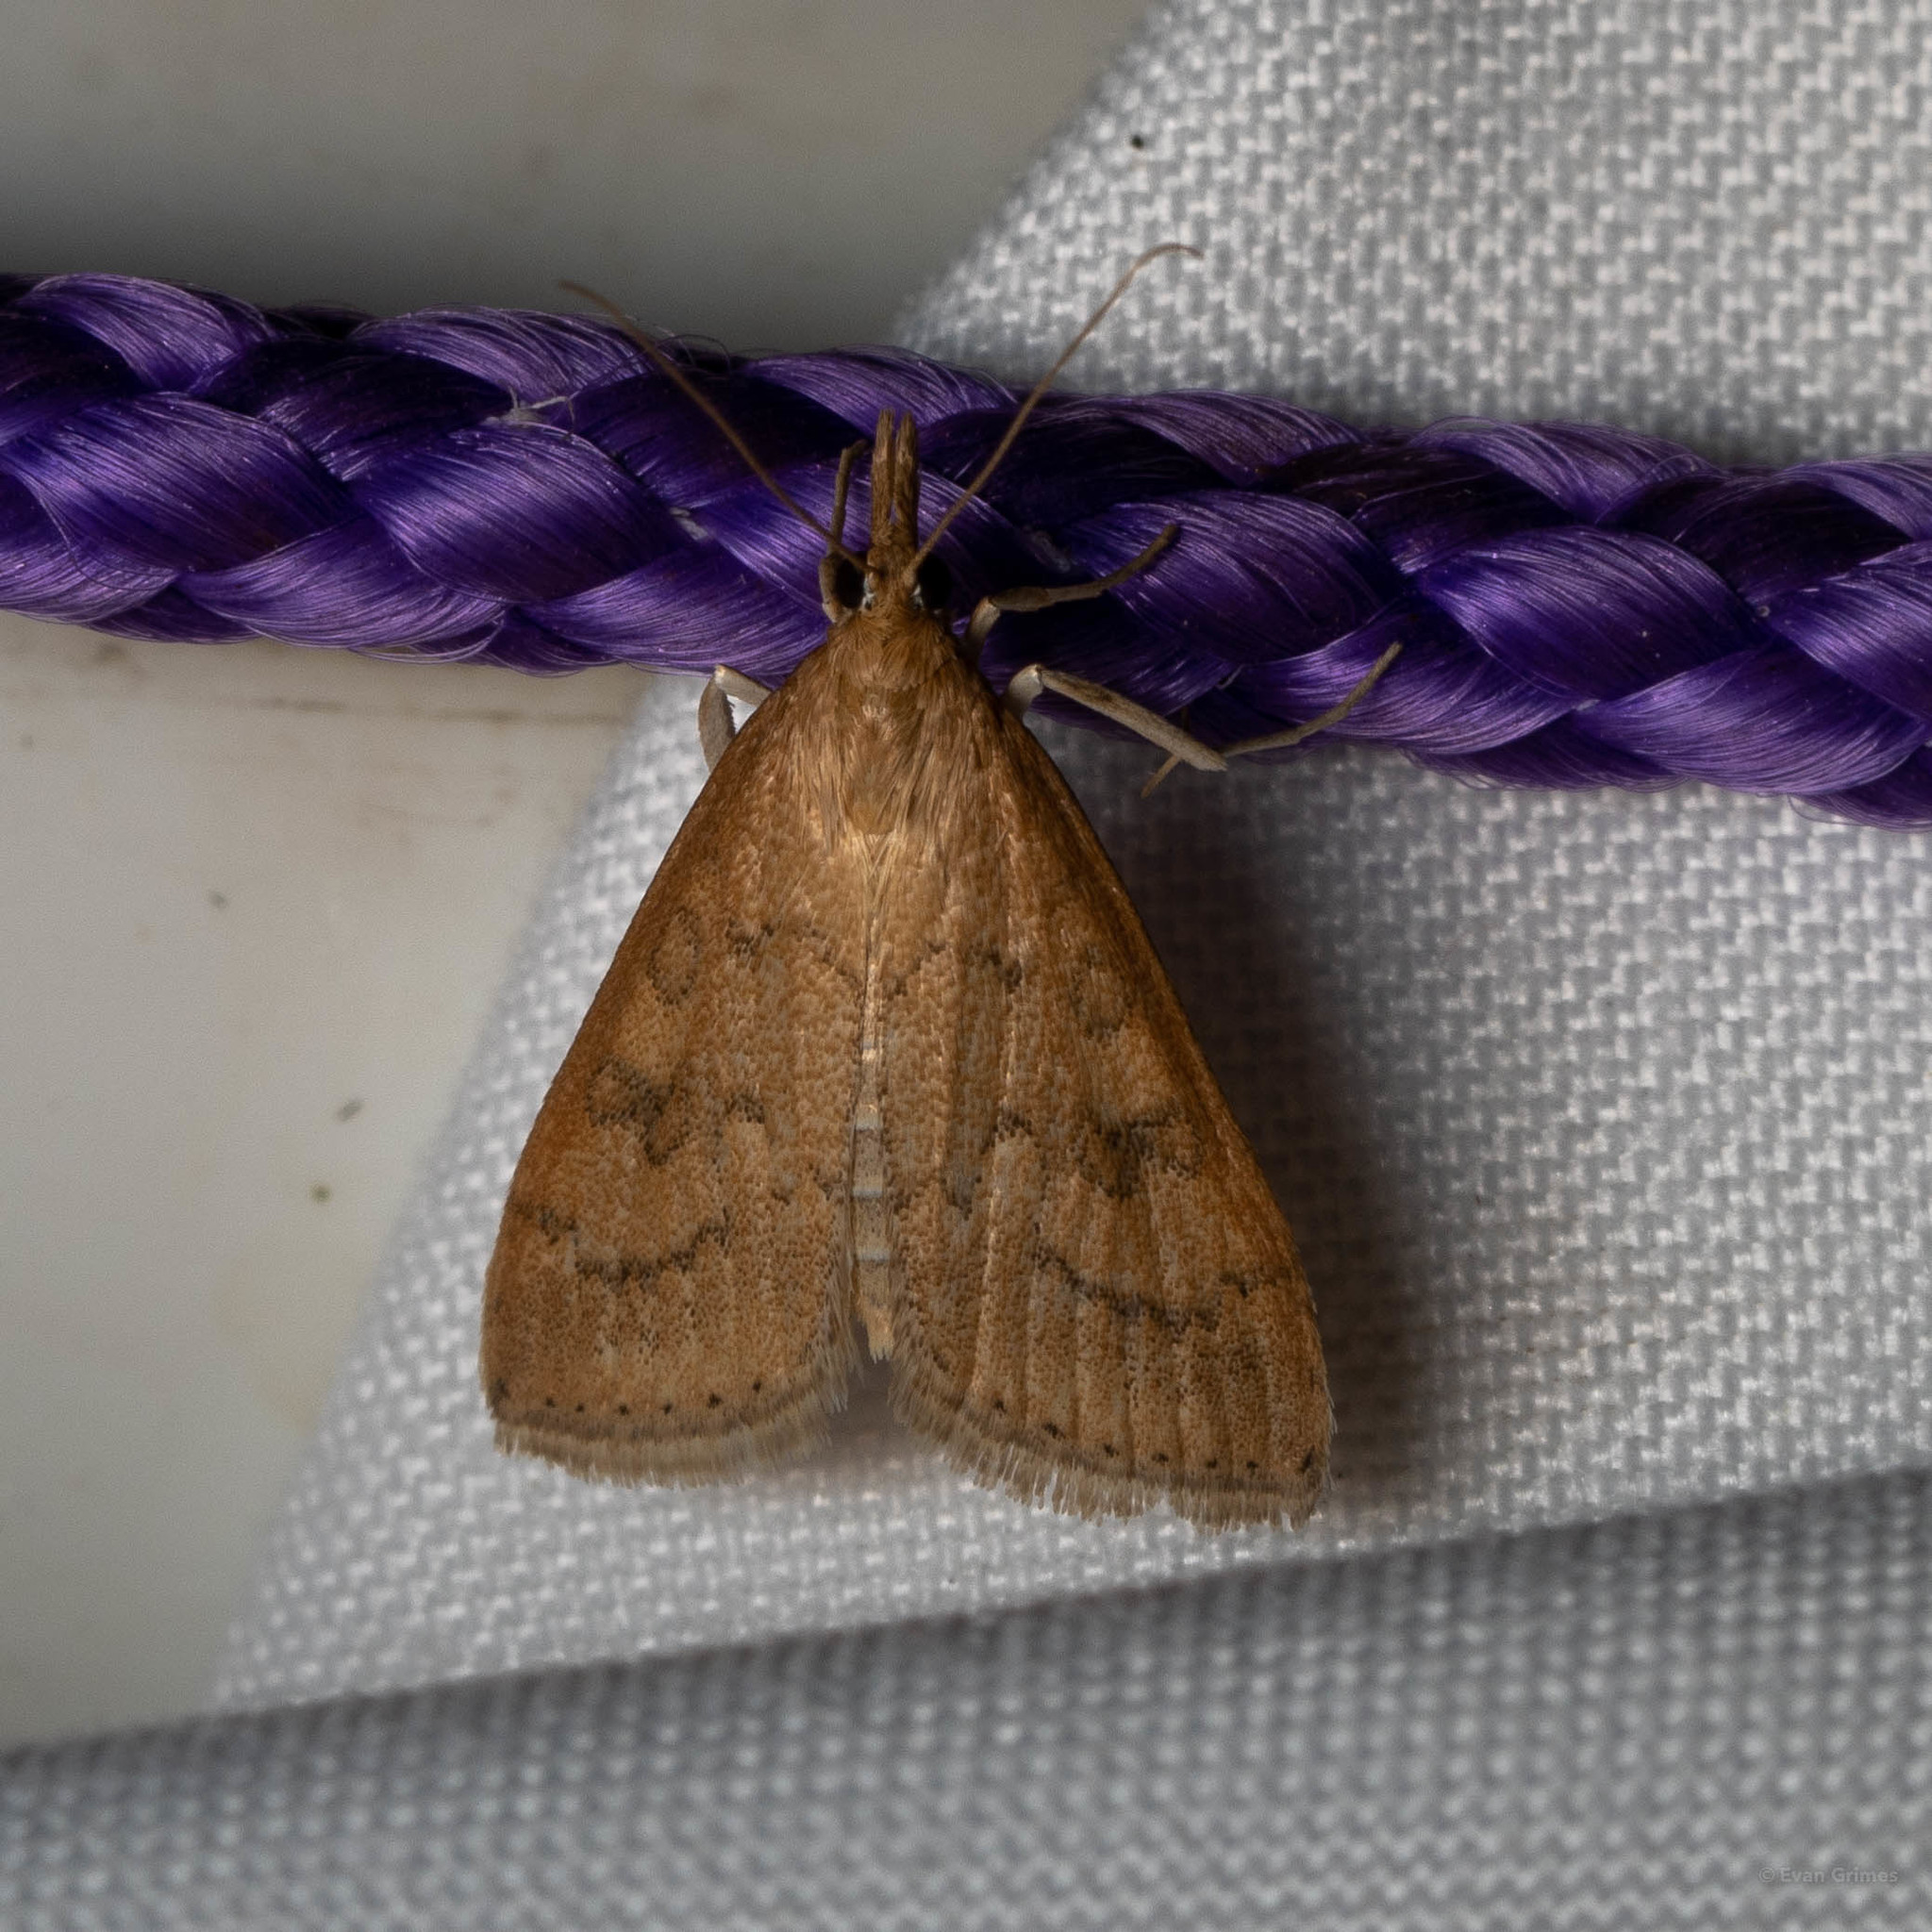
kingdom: Animalia
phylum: Arthropoda
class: Insecta
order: Lepidoptera
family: Crambidae
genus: Udea
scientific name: Udea rubigalis
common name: Celery leaftier moth
